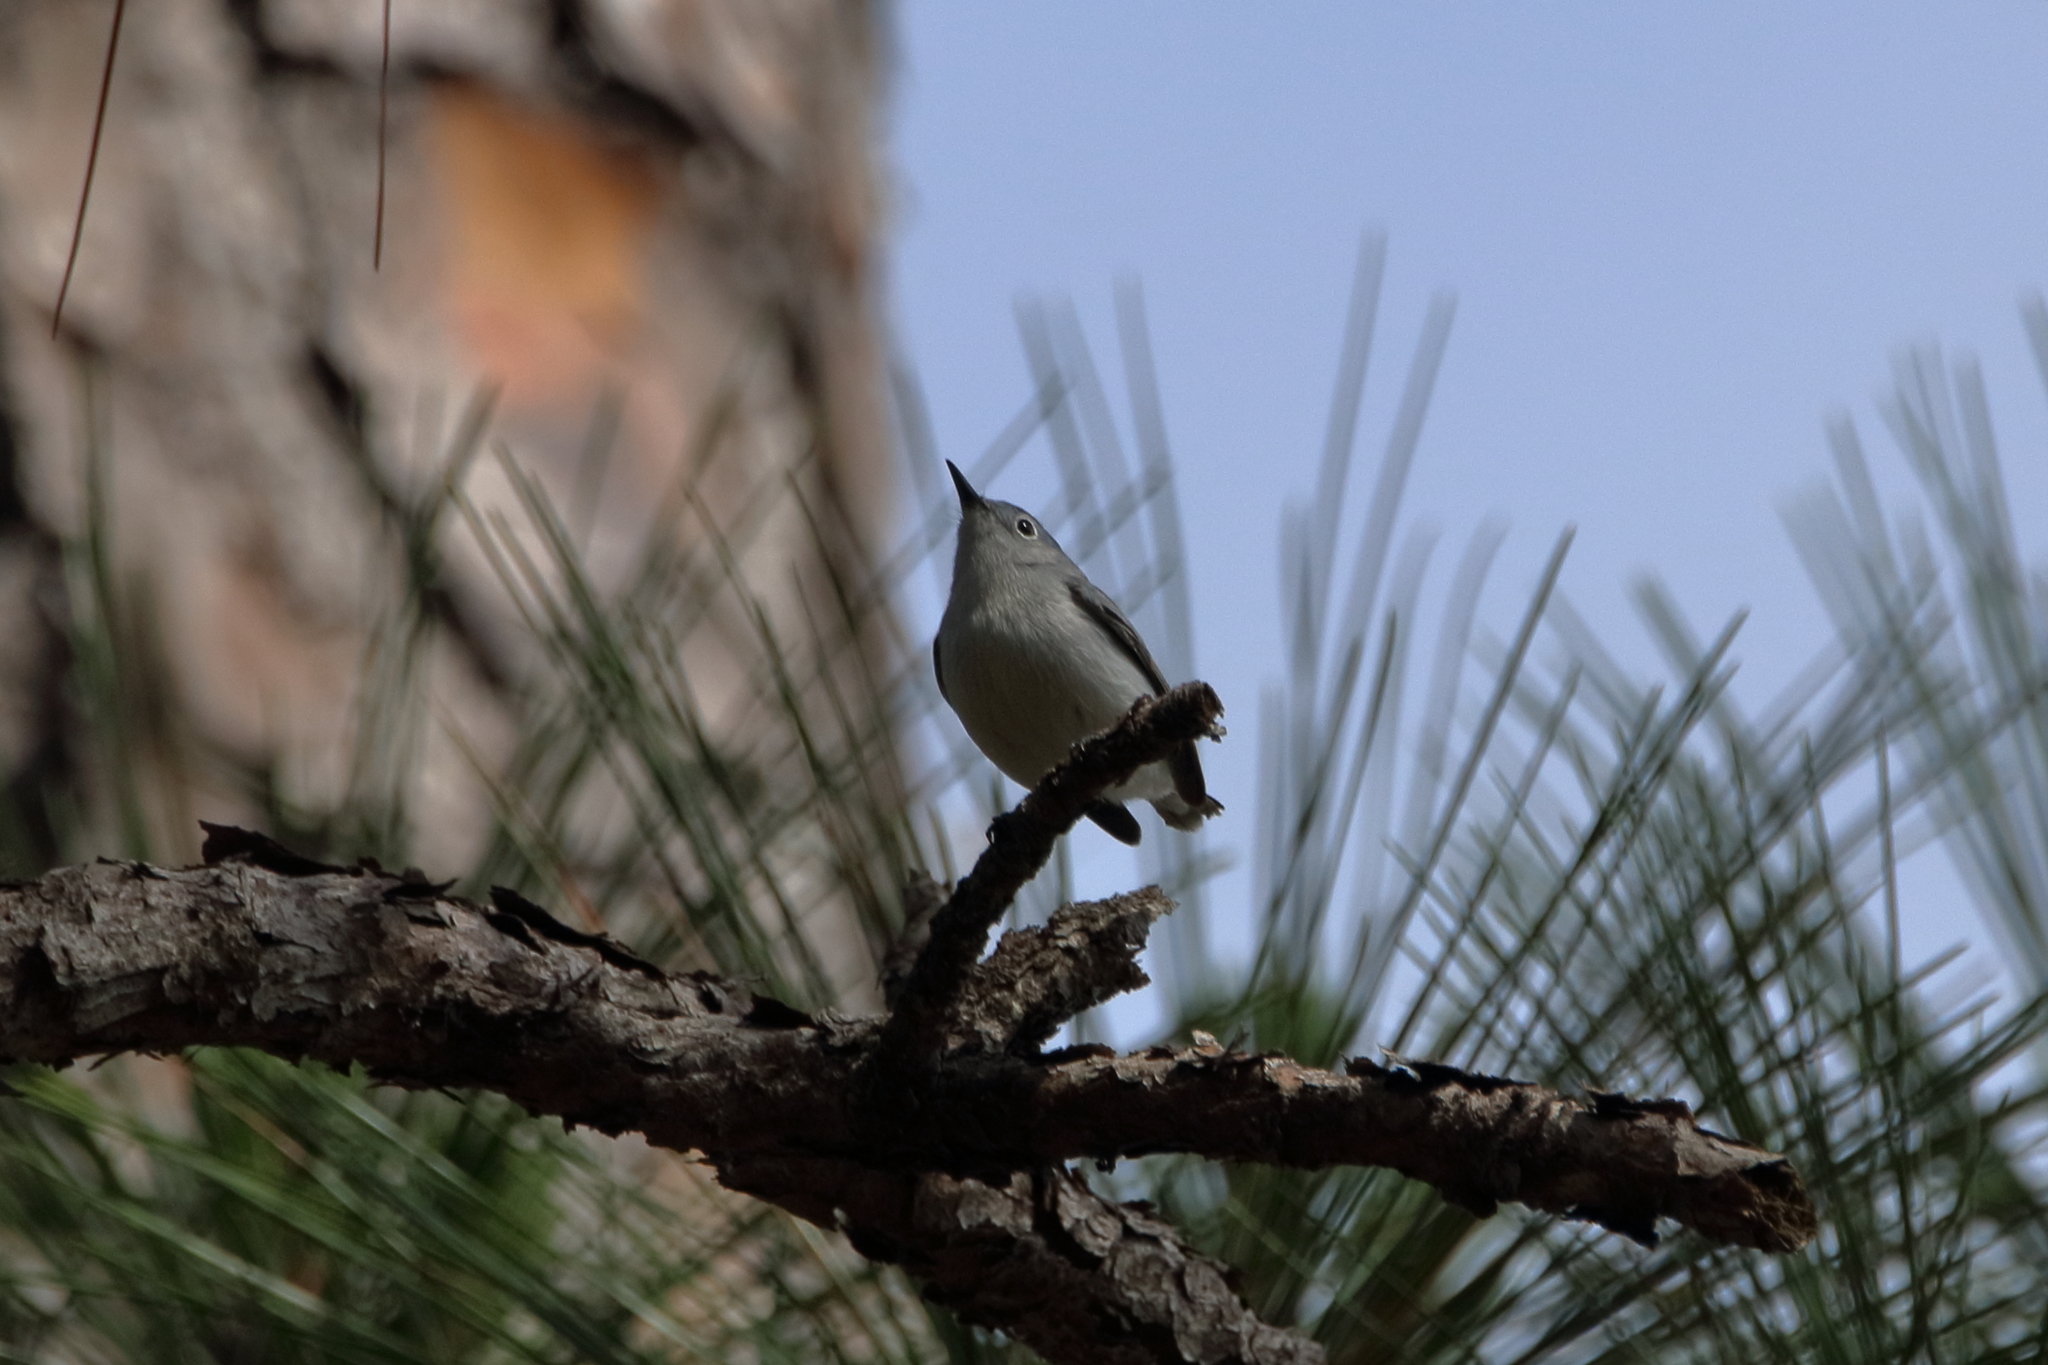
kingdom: Animalia
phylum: Chordata
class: Aves
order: Passeriformes
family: Polioptilidae
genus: Polioptila
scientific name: Polioptila caerulea
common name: Blue-gray gnatcatcher
